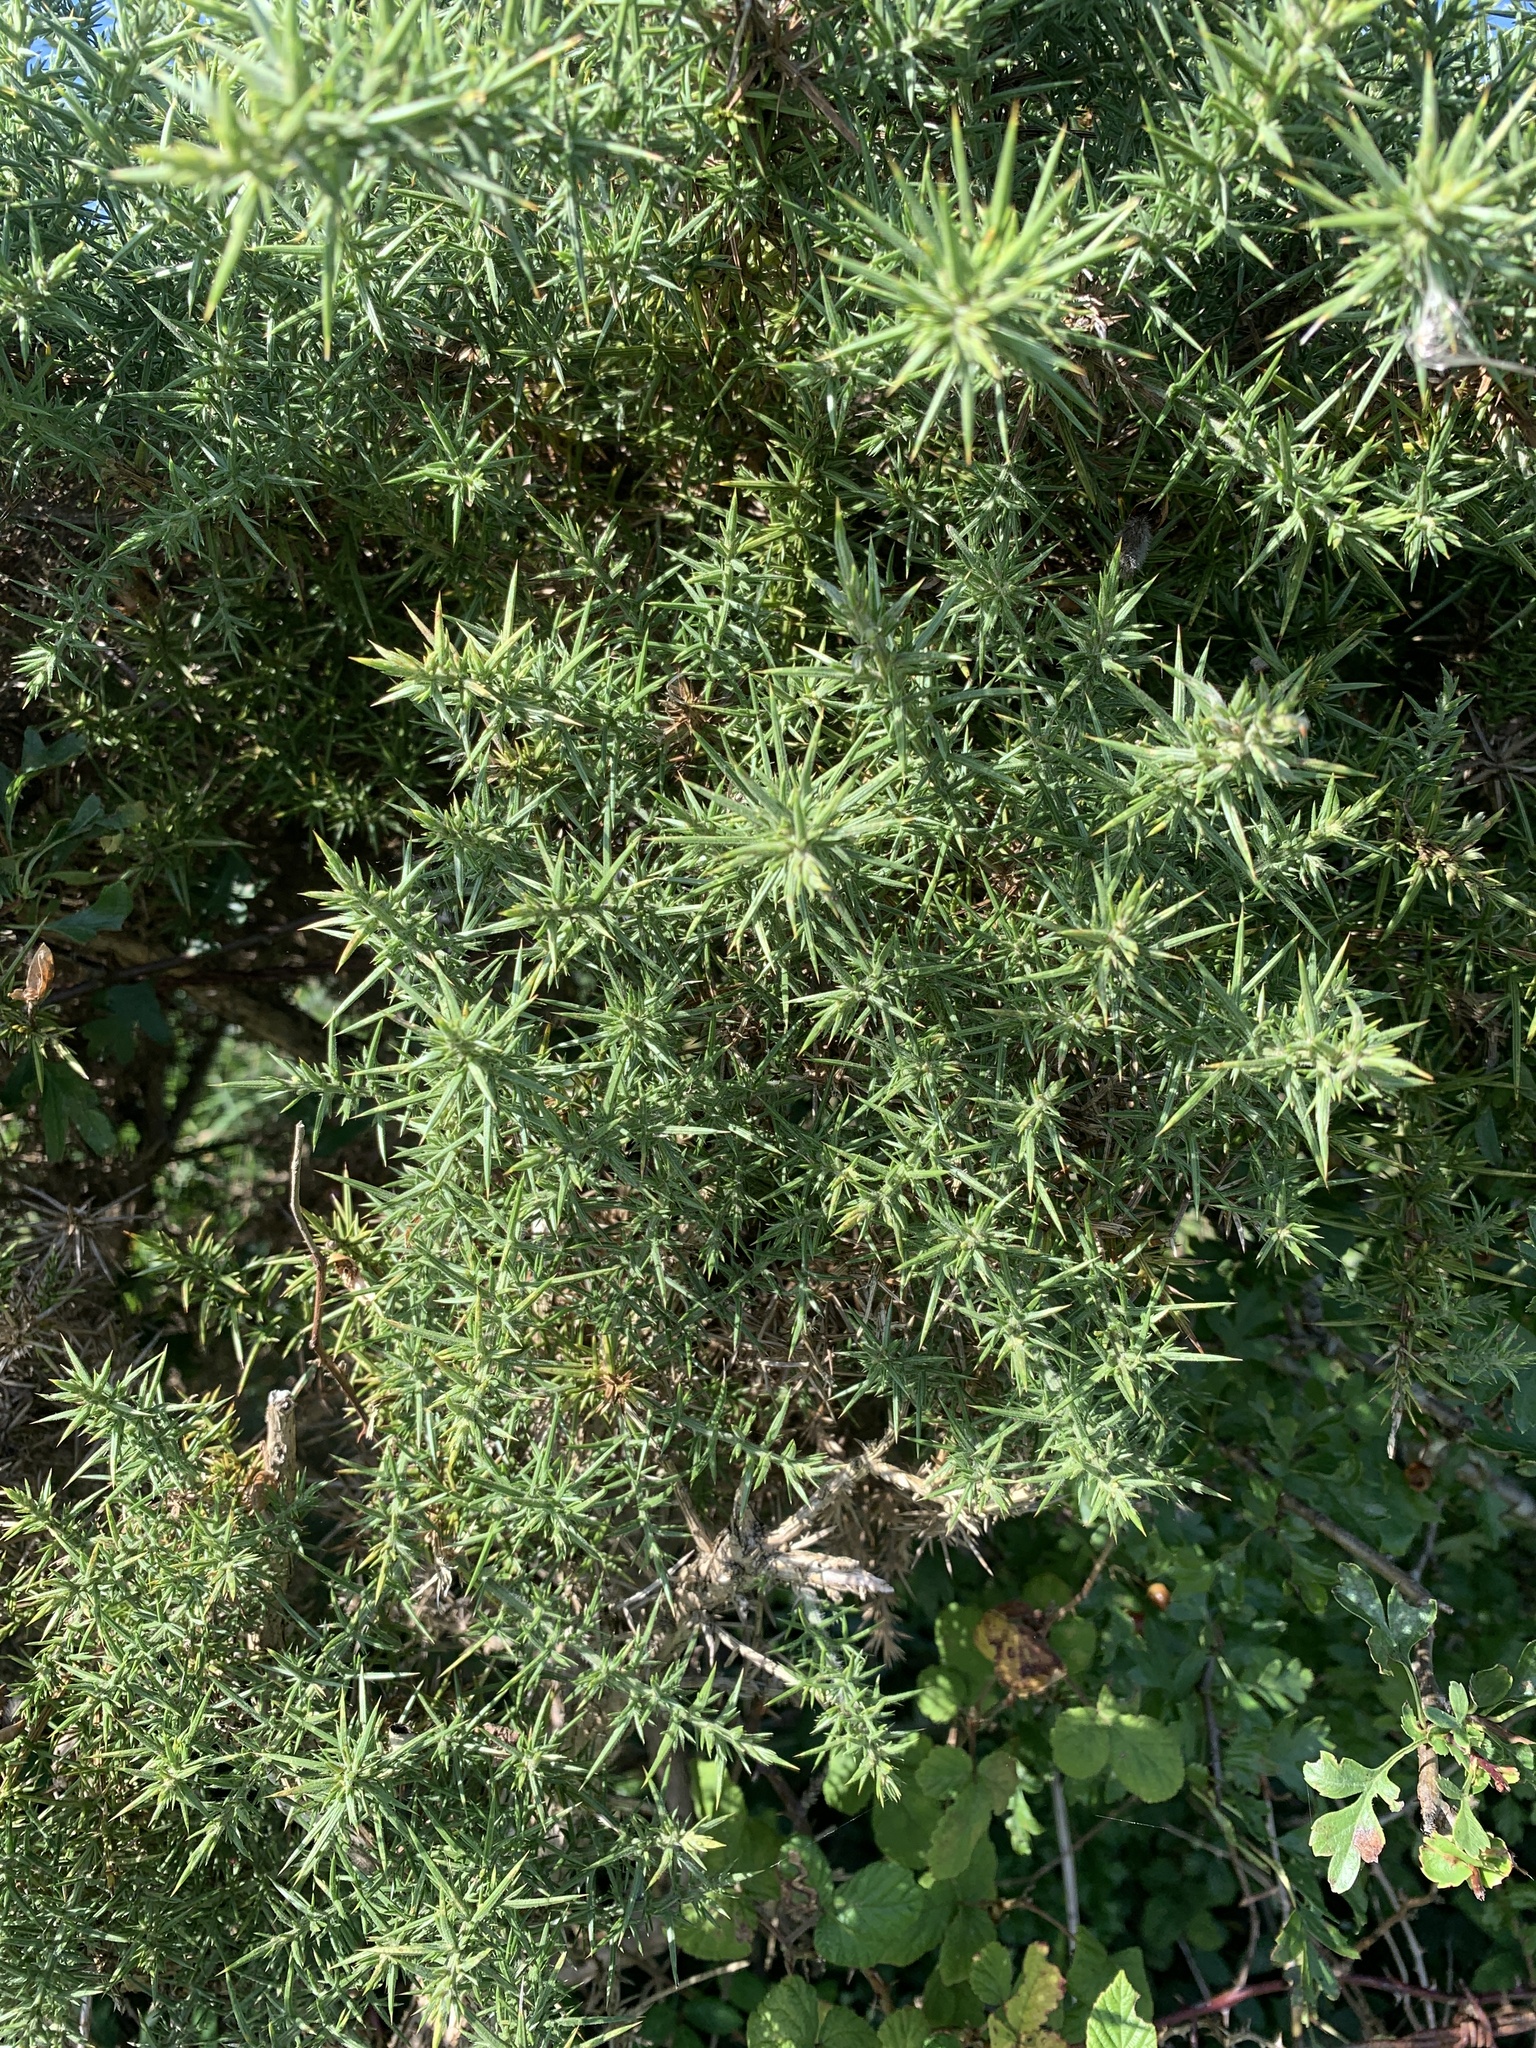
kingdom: Plantae
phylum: Tracheophyta
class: Magnoliopsida
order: Fabales
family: Fabaceae
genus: Ulex
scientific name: Ulex europaeus
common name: Common gorse
